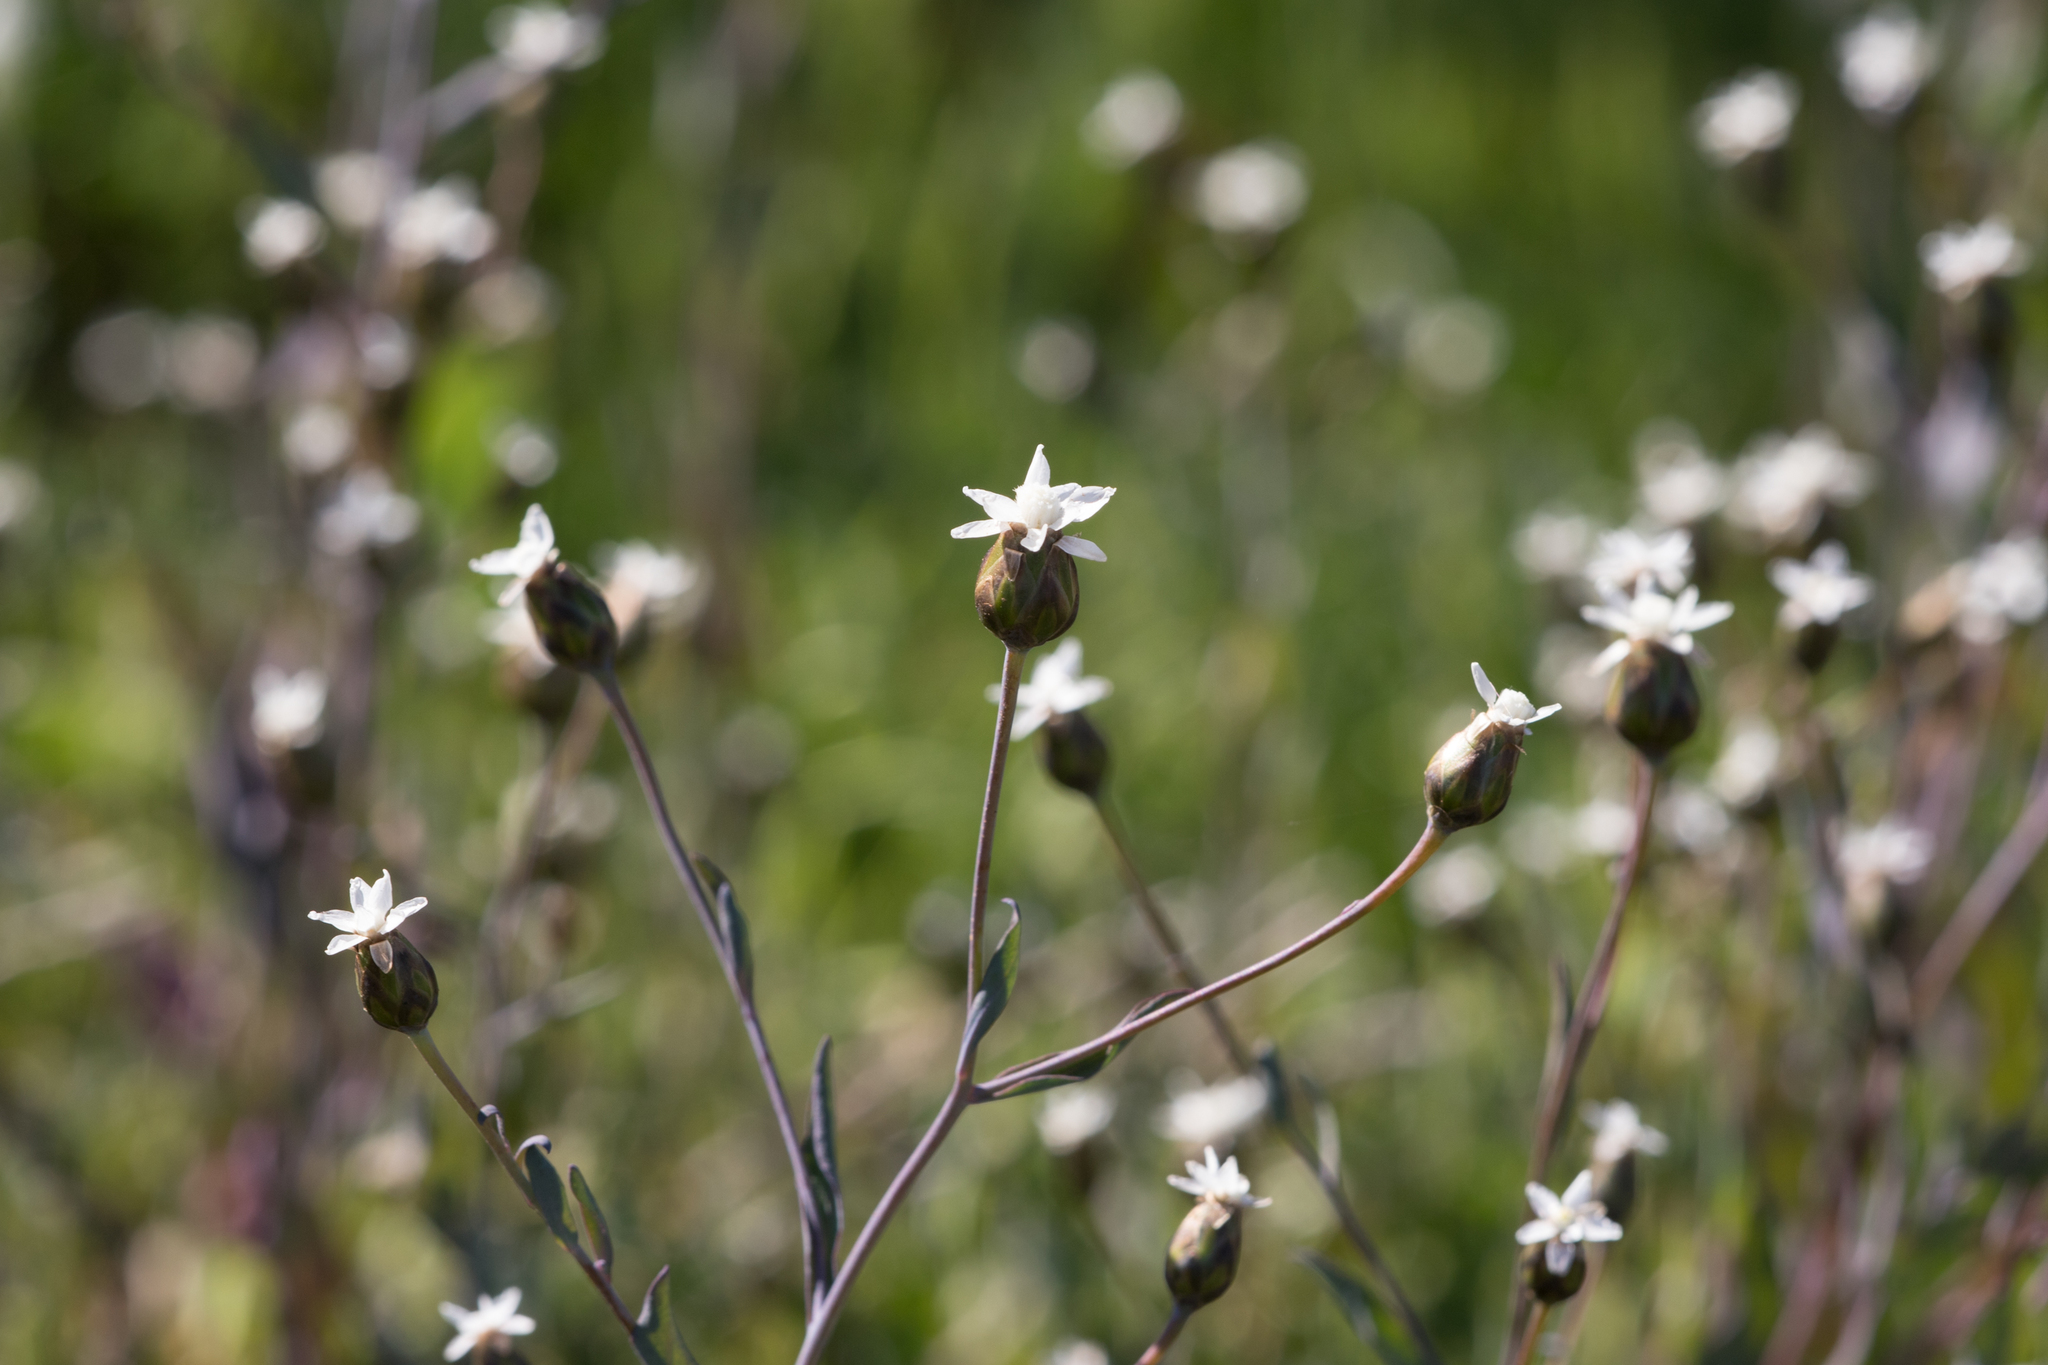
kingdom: Plantae
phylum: Tracheophyta
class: Magnoliopsida
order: Asterales
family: Asteraceae
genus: Rhodanthe
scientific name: Rhodanthe stricta
